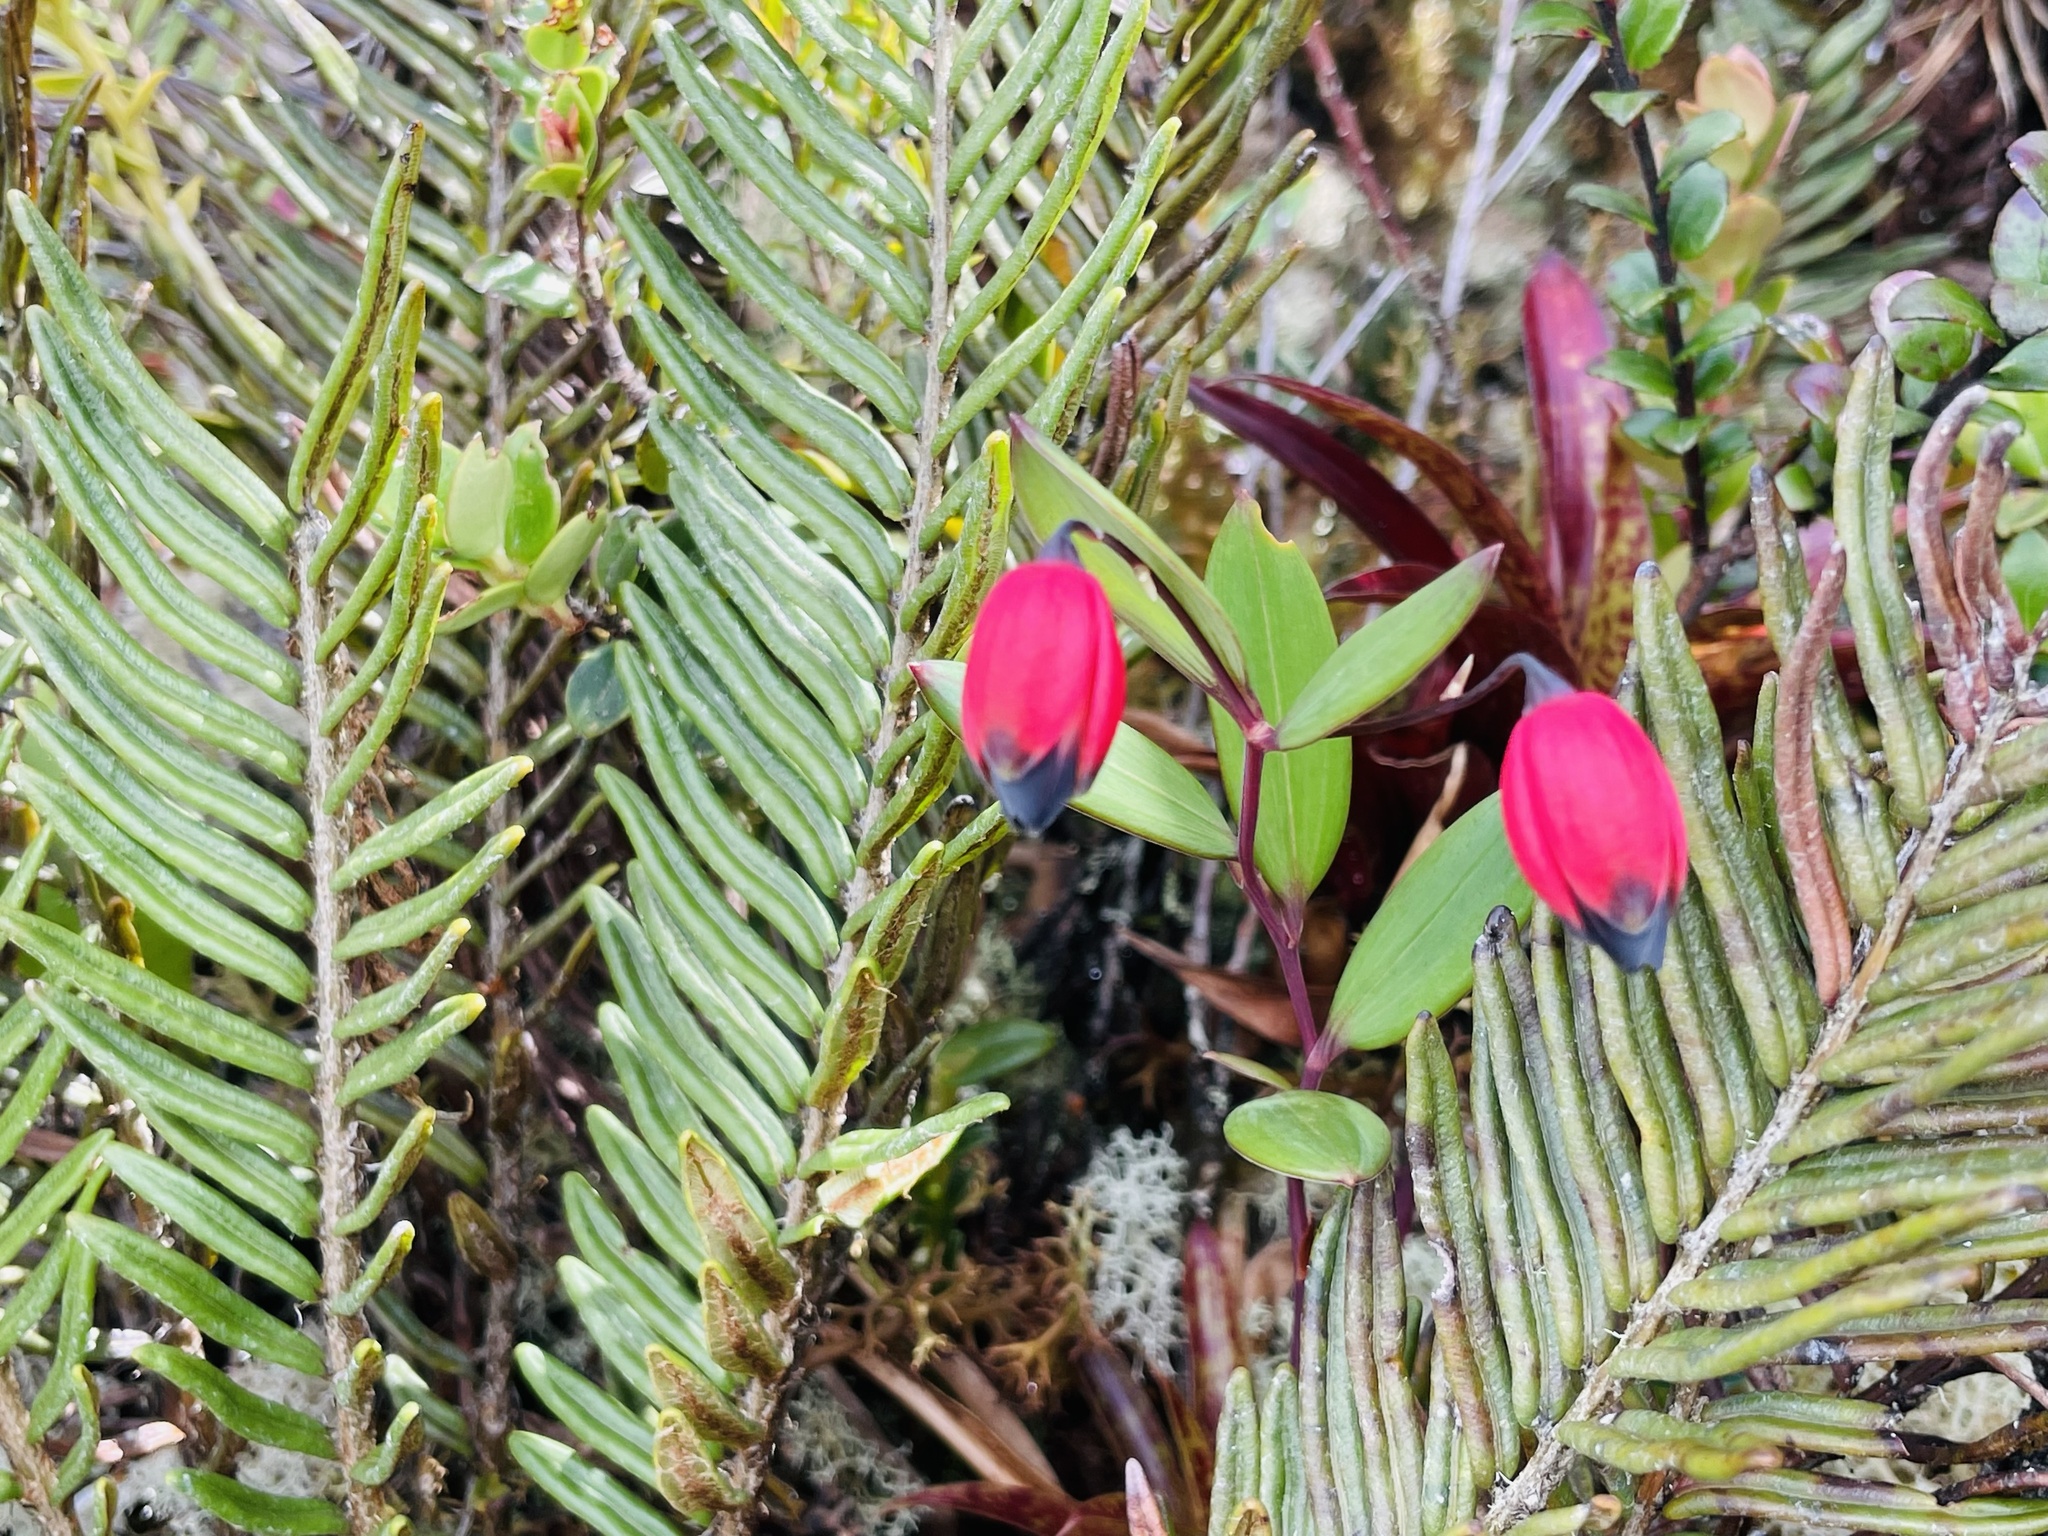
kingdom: Plantae
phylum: Tracheophyta
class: Liliopsida
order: Liliales
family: Alstroemeriaceae
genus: Bomarea
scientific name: Bomarea brachysepala
